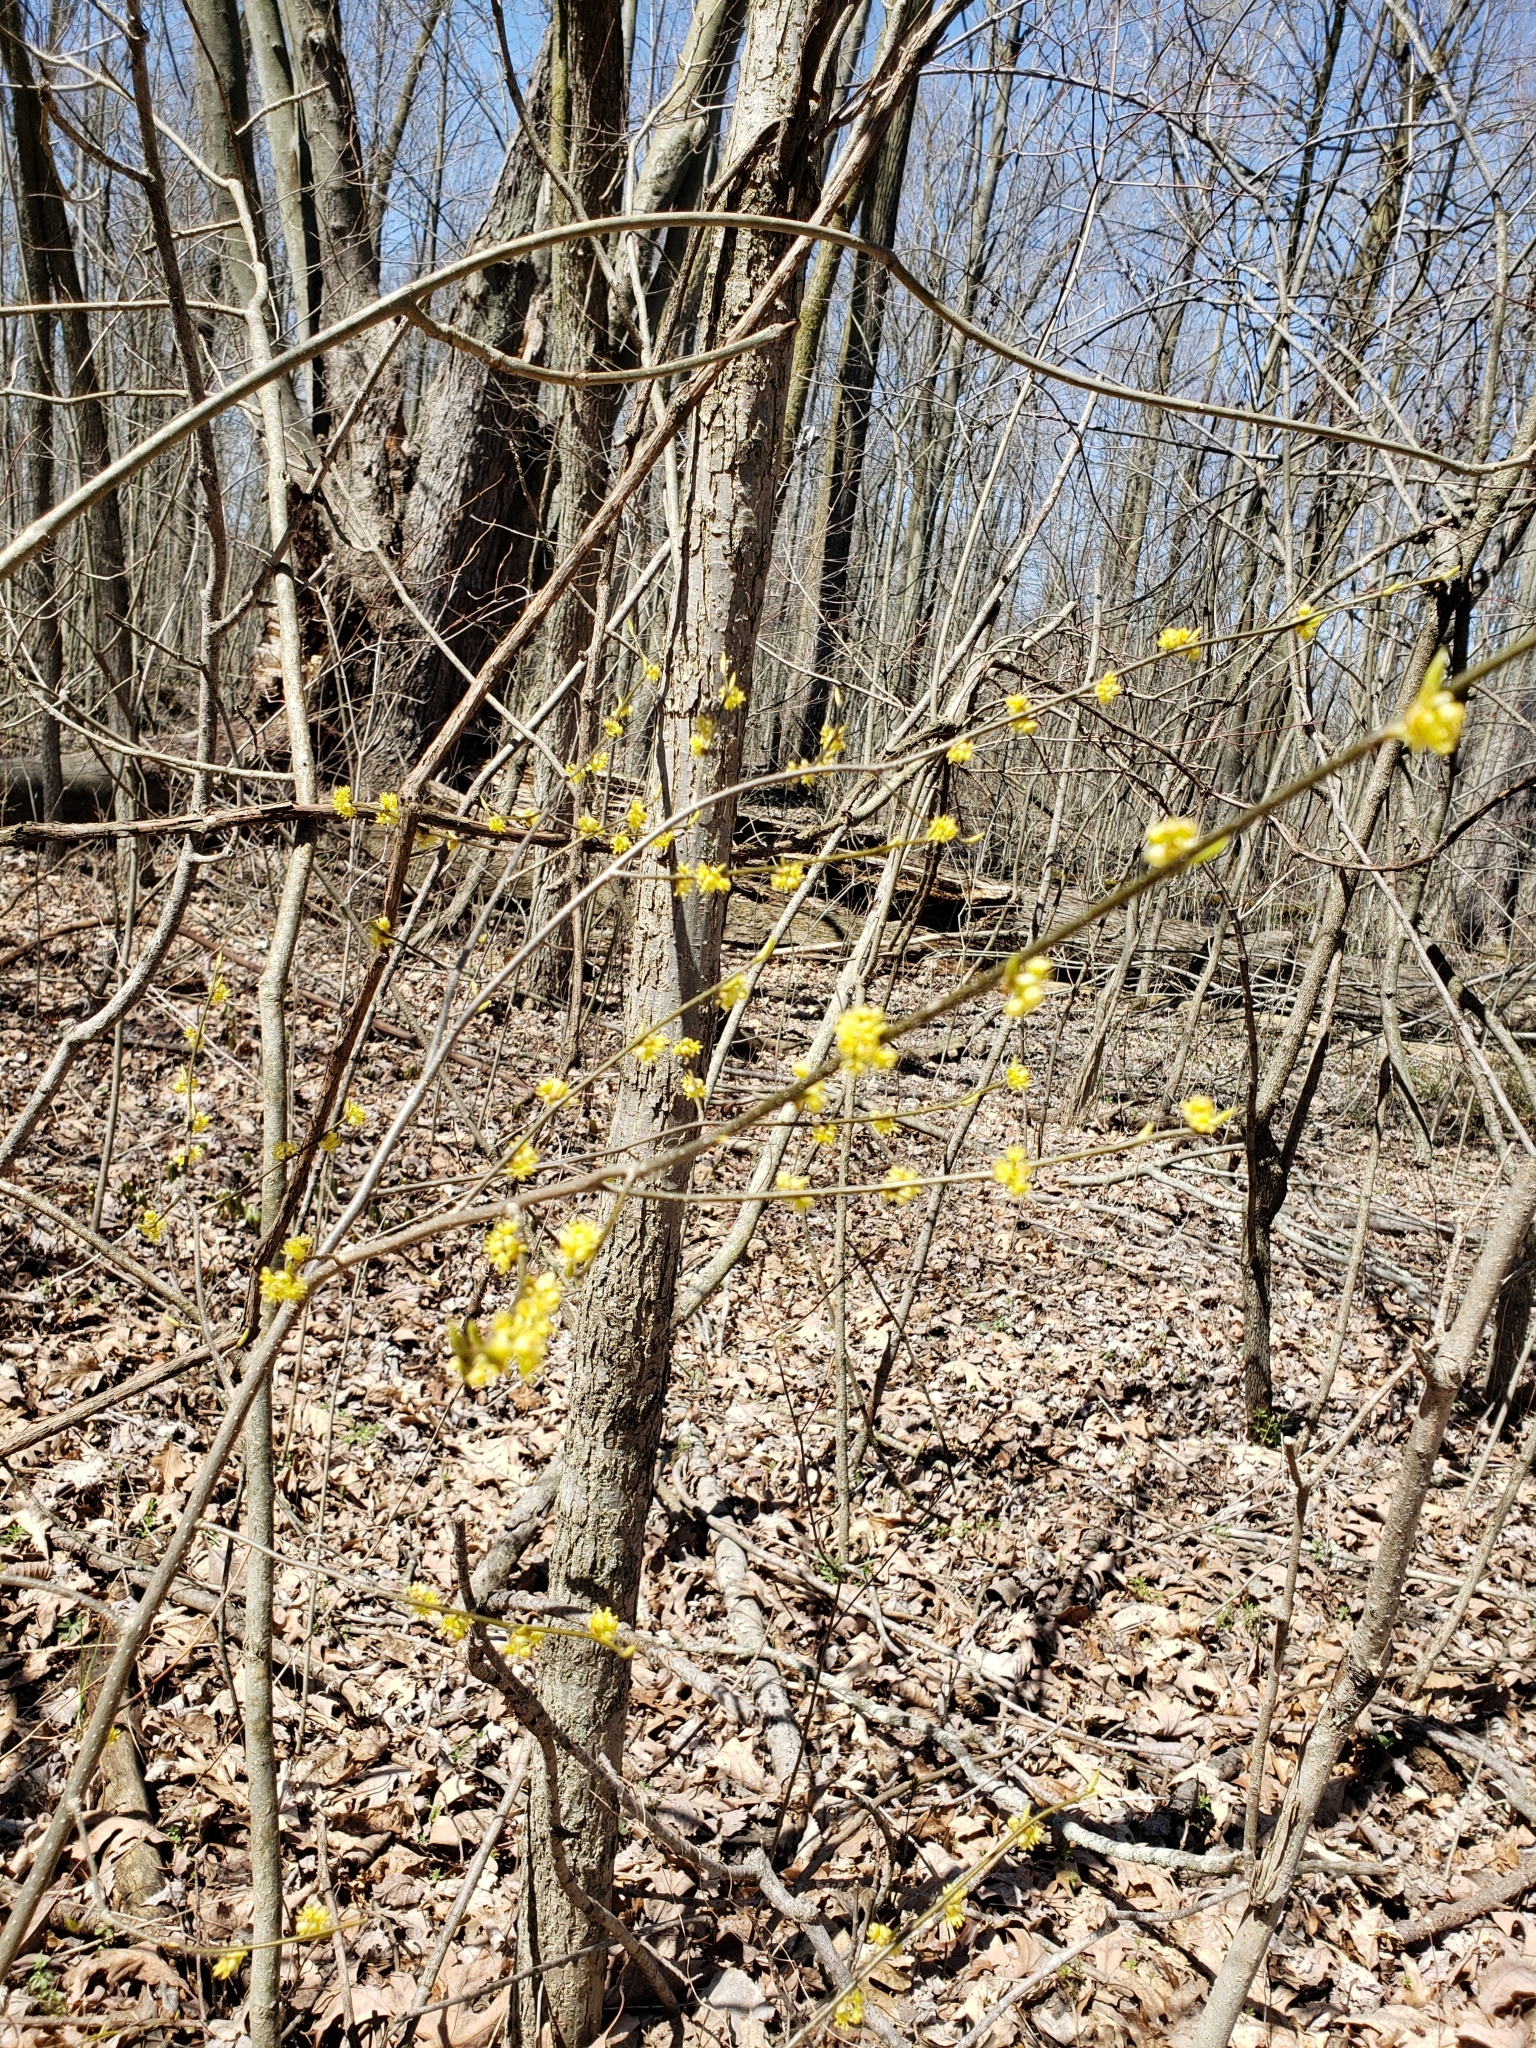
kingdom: Plantae
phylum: Tracheophyta
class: Magnoliopsida
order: Laurales
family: Lauraceae
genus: Lindera
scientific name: Lindera benzoin
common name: Spicebush
